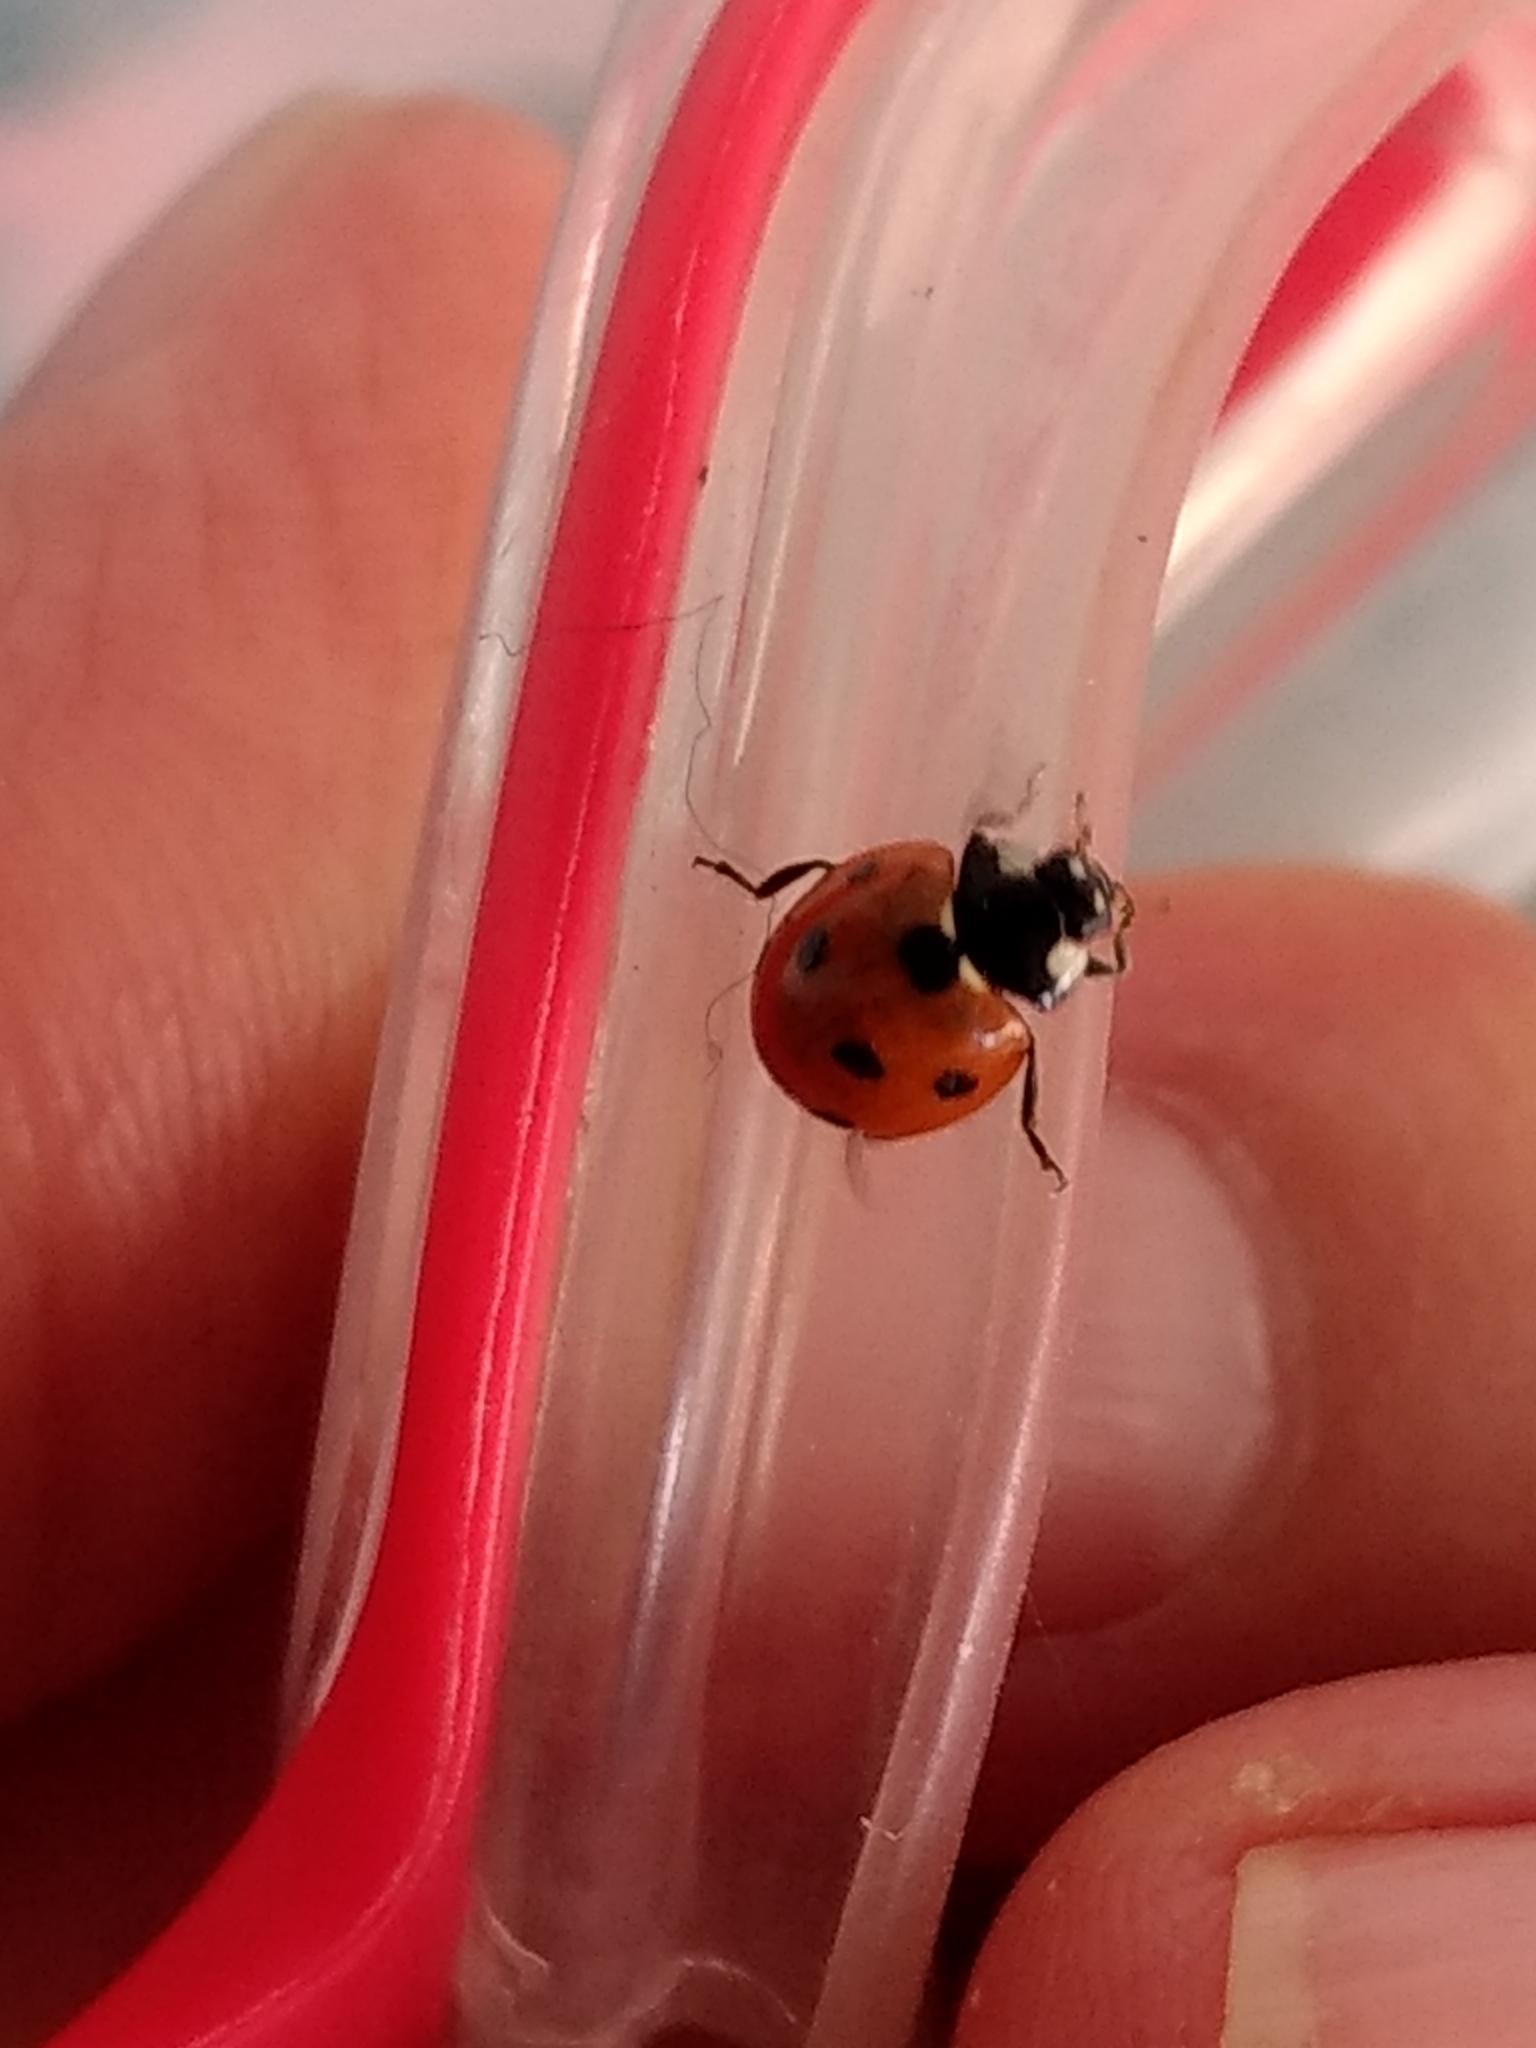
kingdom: Animalia
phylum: Arthropoda
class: Insecta
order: Coleoptera
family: Coccinellidae
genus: Coccinella
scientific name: Coccinella septempunctata
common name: Sevenspotted lady beetle
